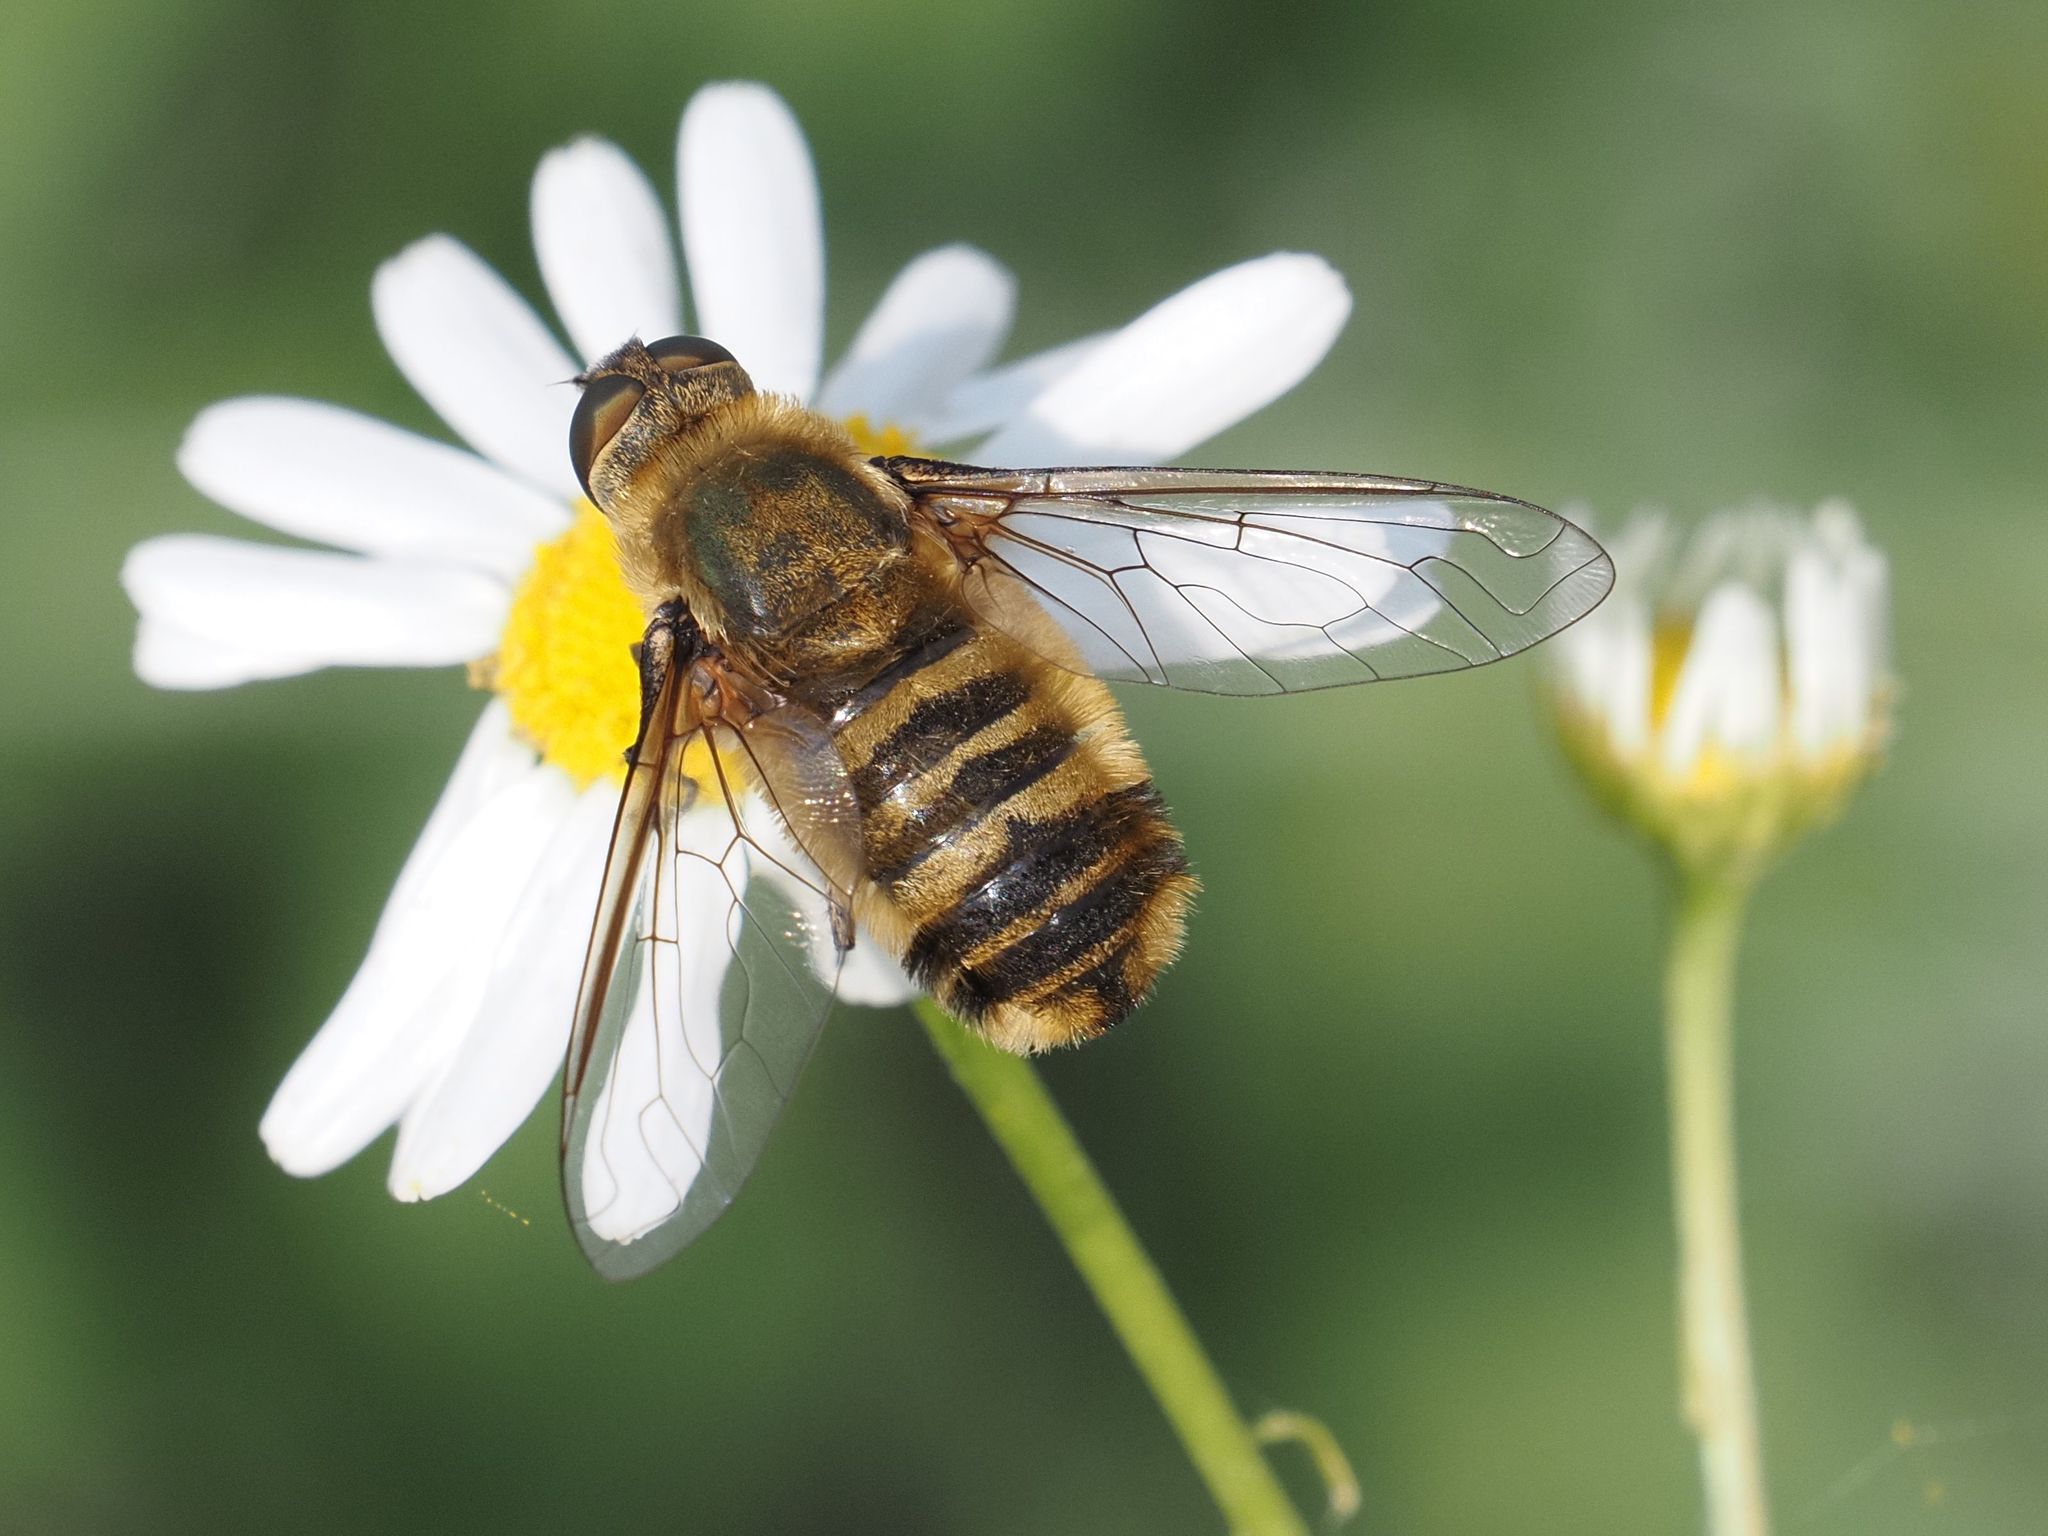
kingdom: Animalia
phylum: Arthropoda
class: Insecta
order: Diptera
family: Bombyliidae
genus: Villa
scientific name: Villa hottentotta
